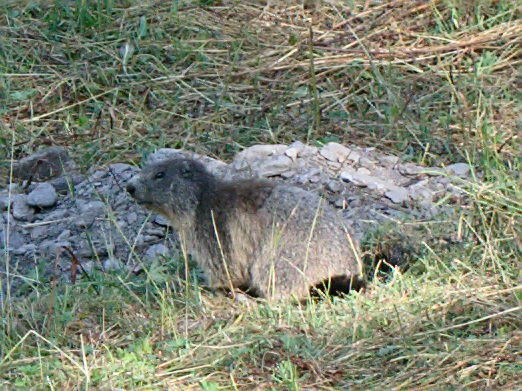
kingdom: Animalia
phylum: Chordata
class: Mammalia
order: Rodentia
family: Sciuridae
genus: Marmota
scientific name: Marmota marmota
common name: Alpine marmot
